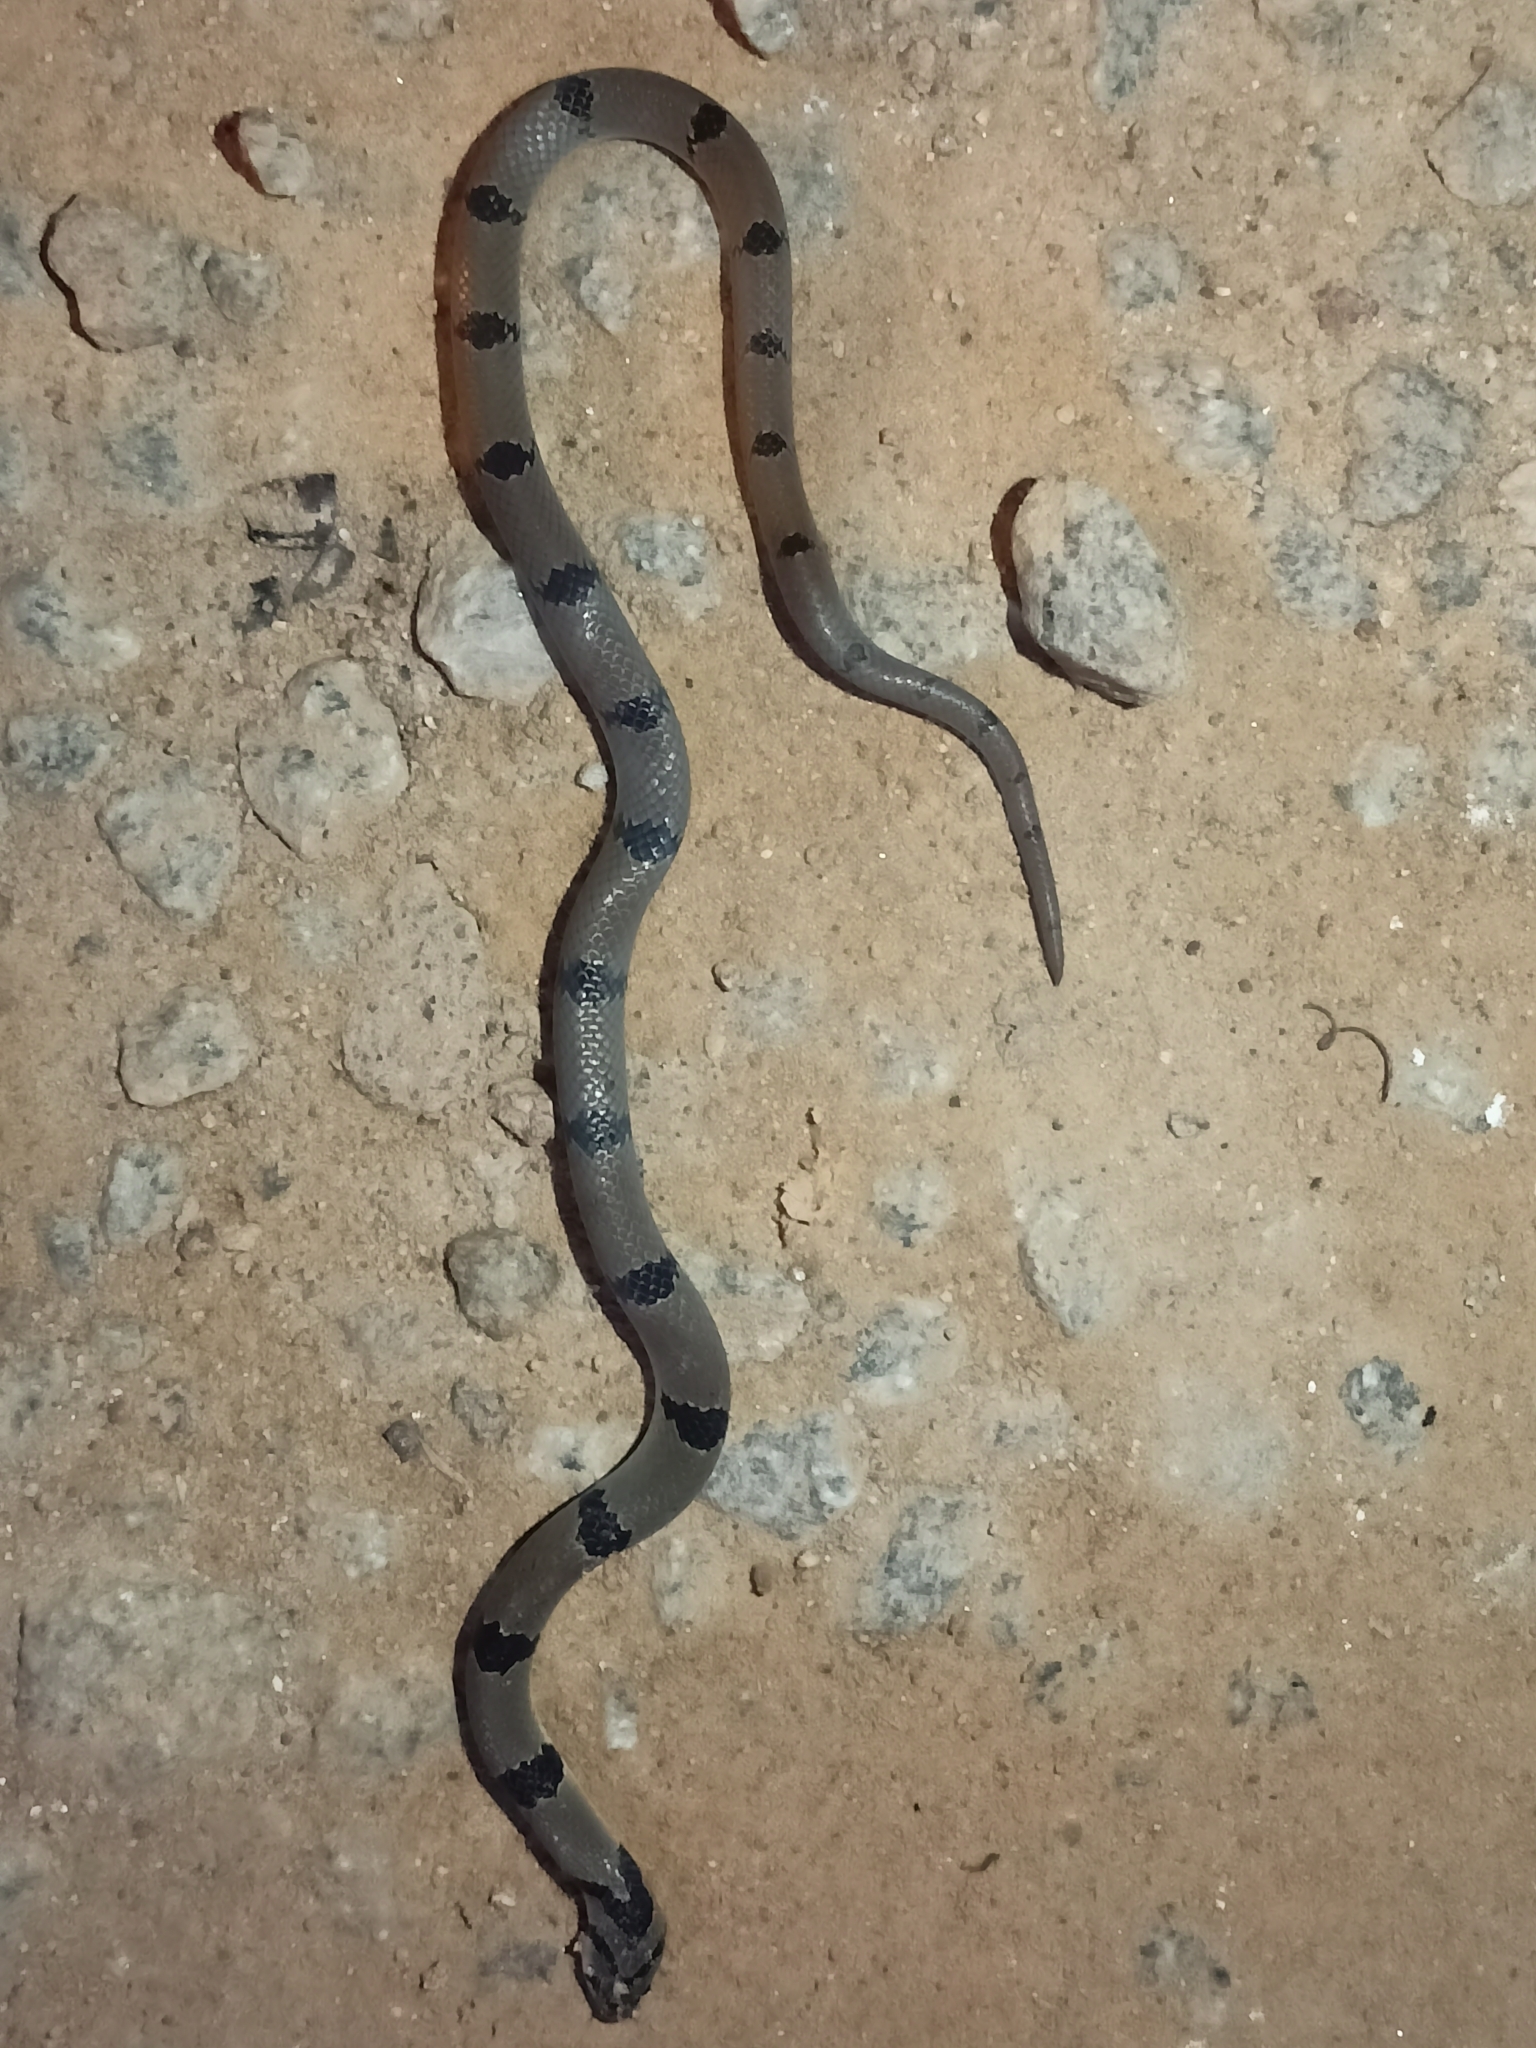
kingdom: Animalia
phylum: Chordata
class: Squamata
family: Colubridae
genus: Oligodon
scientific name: Oligodon arnensis
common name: Banded kukri
